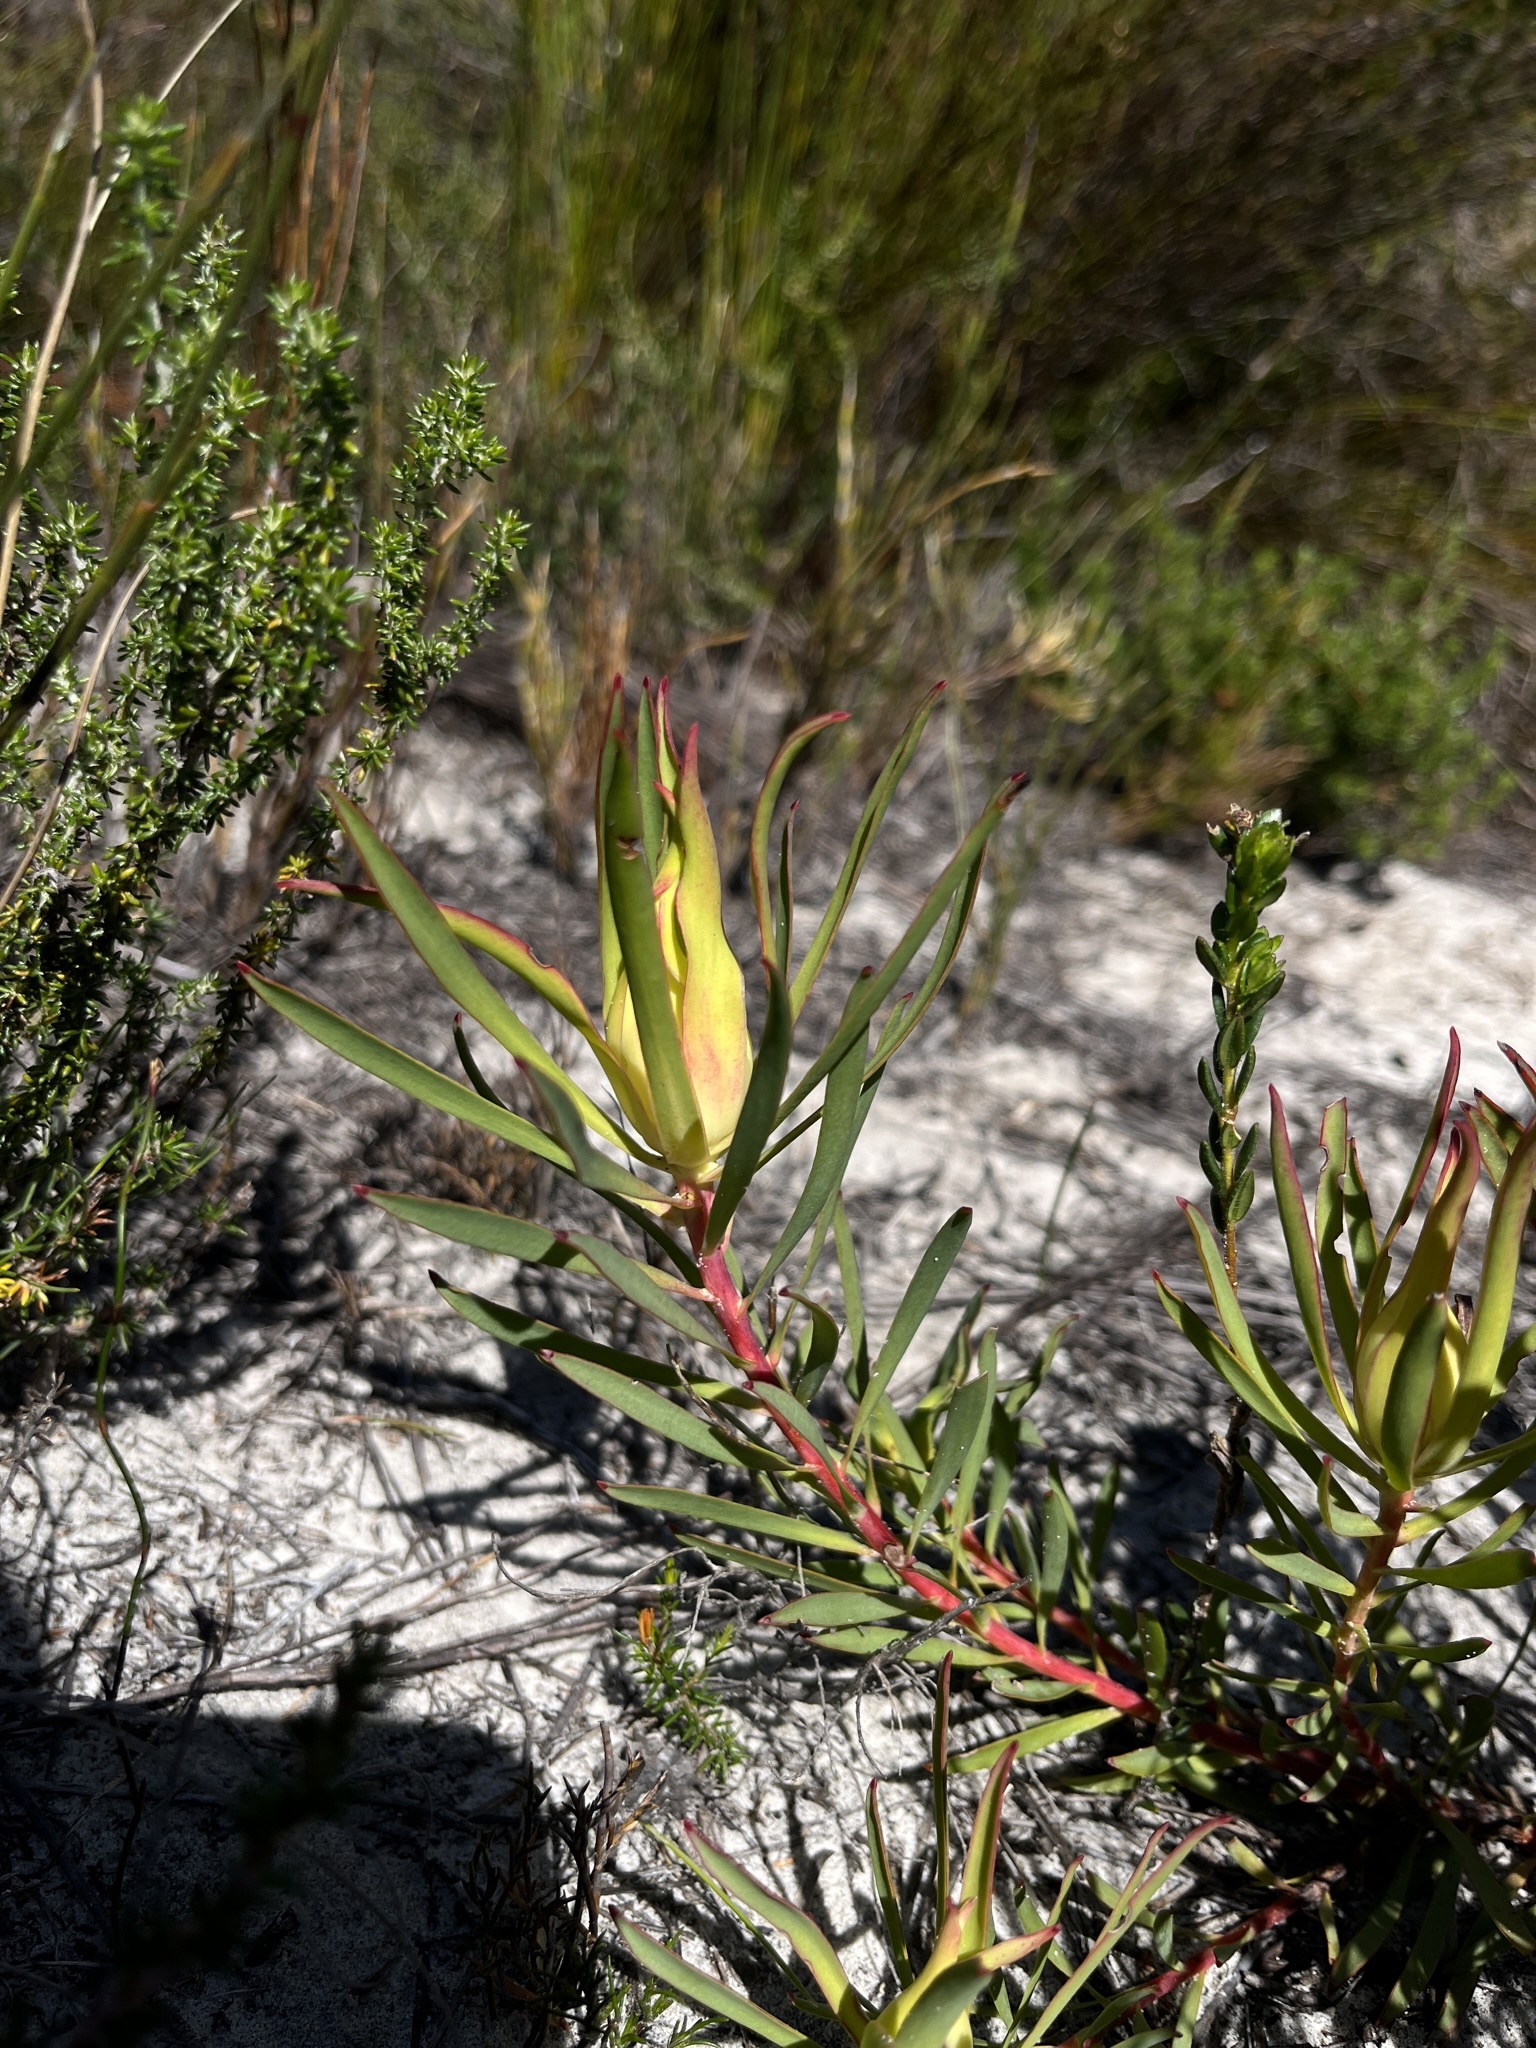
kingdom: Plantae
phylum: Tracheophyta
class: Magnoliopsida
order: Proteales
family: Proteaceae
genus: Leucadendron
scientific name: Leucadendron salignum
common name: Common sunshine conebush
